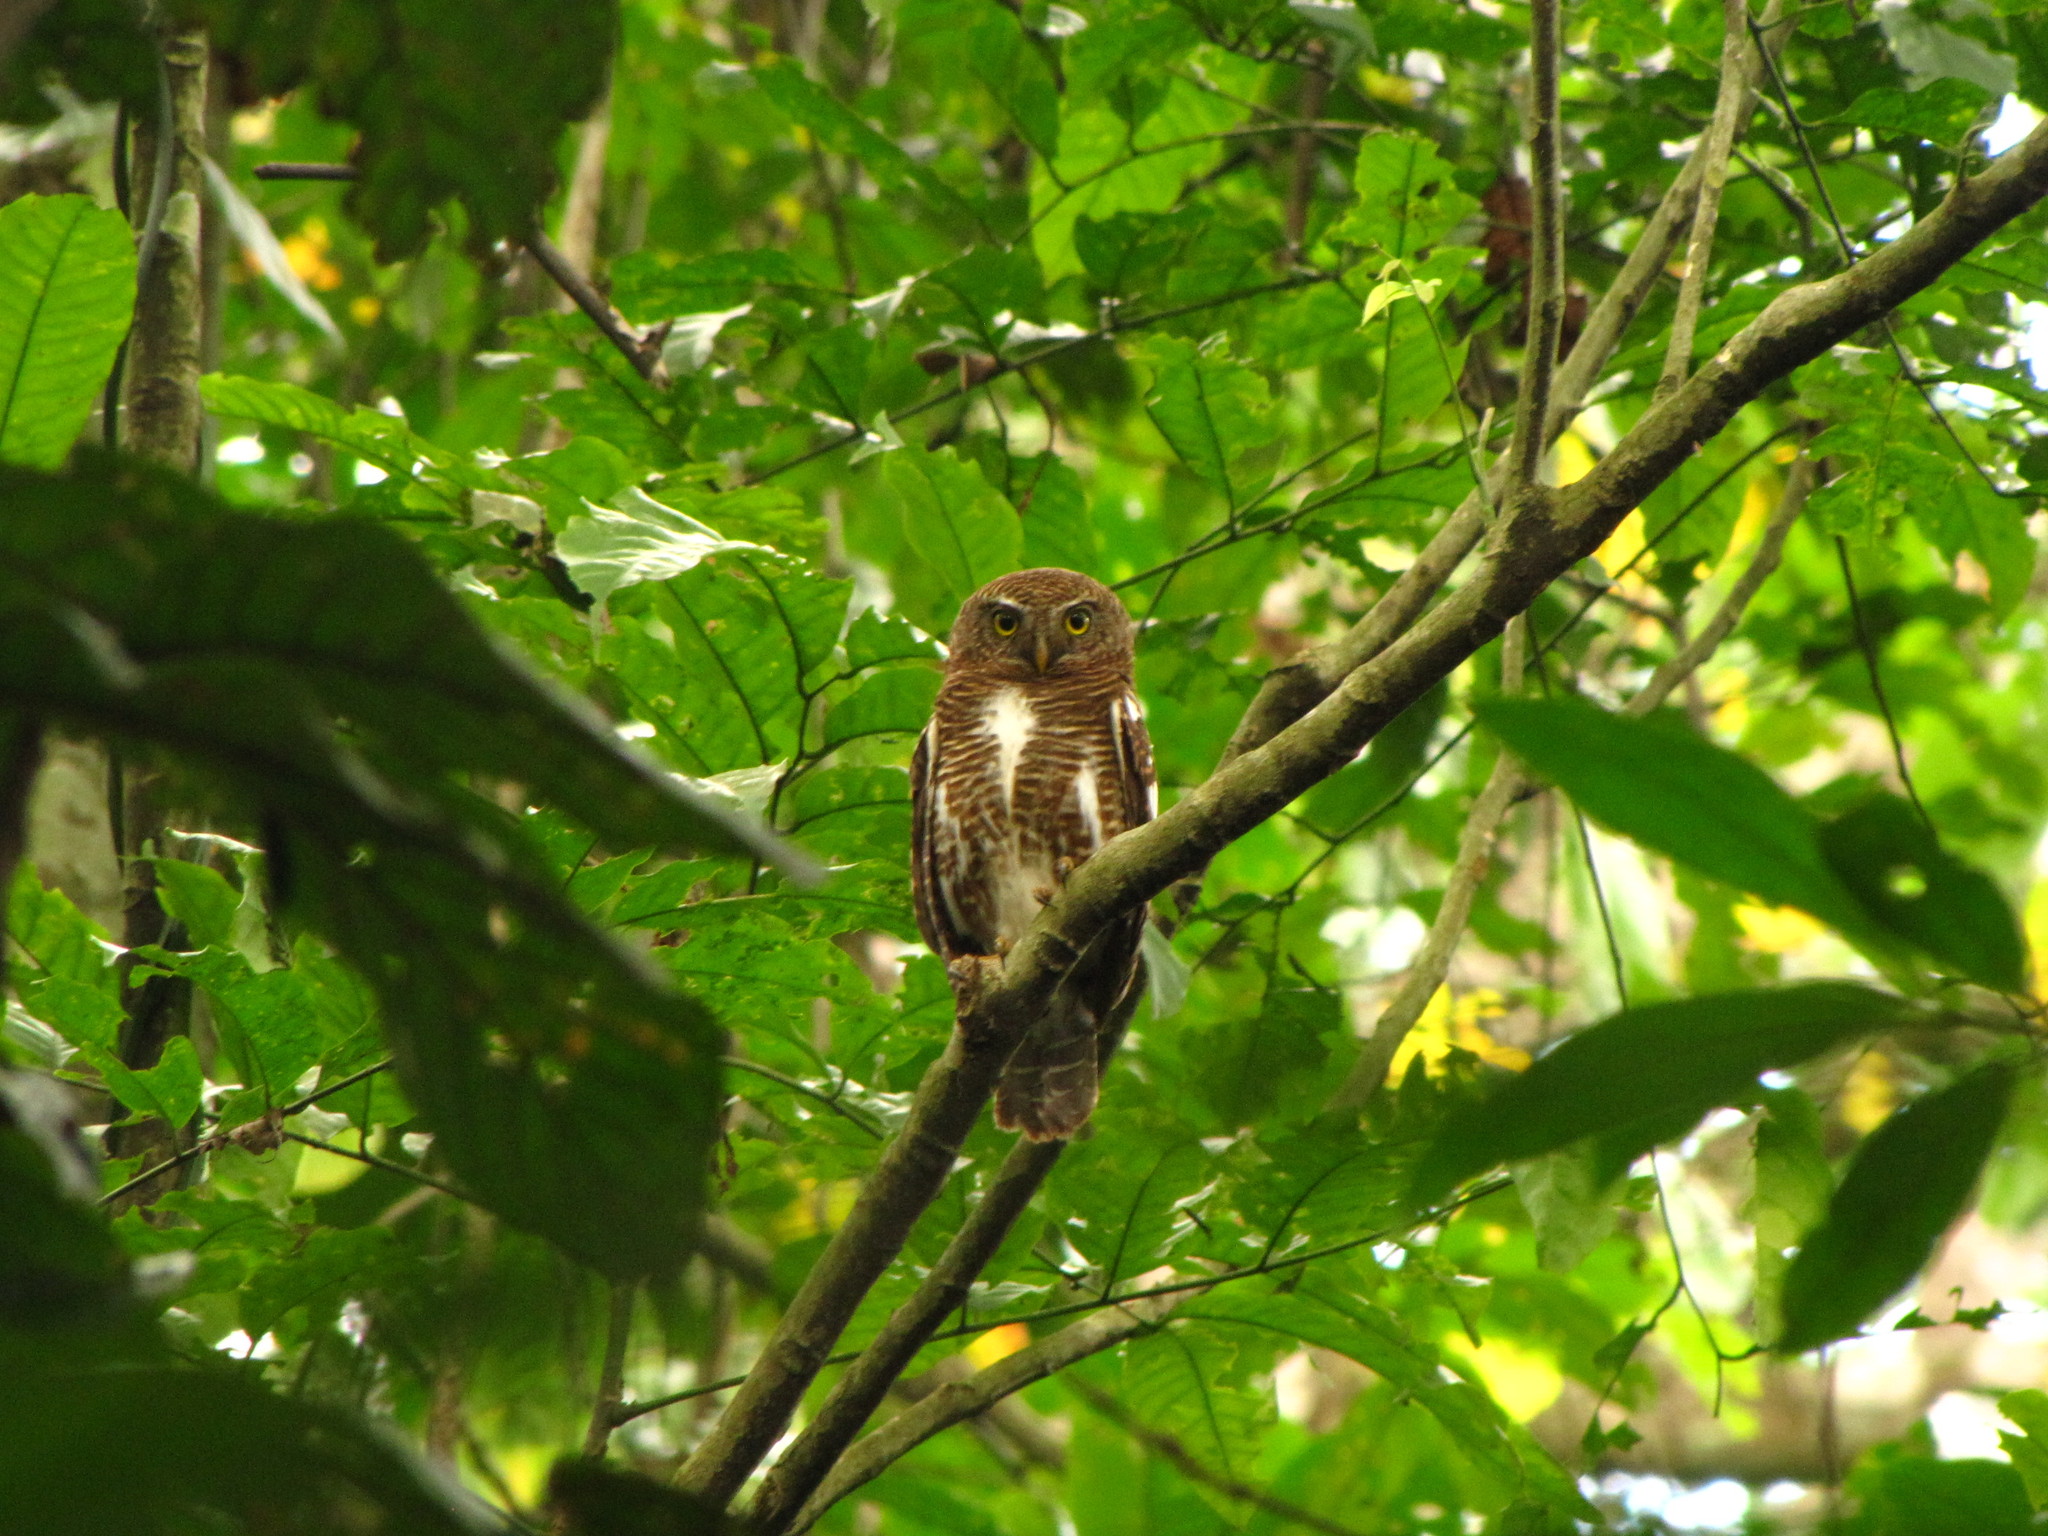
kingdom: Animalia
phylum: Chordata
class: Aves
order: Strigiformes
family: Strigidae
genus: Glaucidium
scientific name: Glaucidium cuculoides
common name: Asian barred owlet
